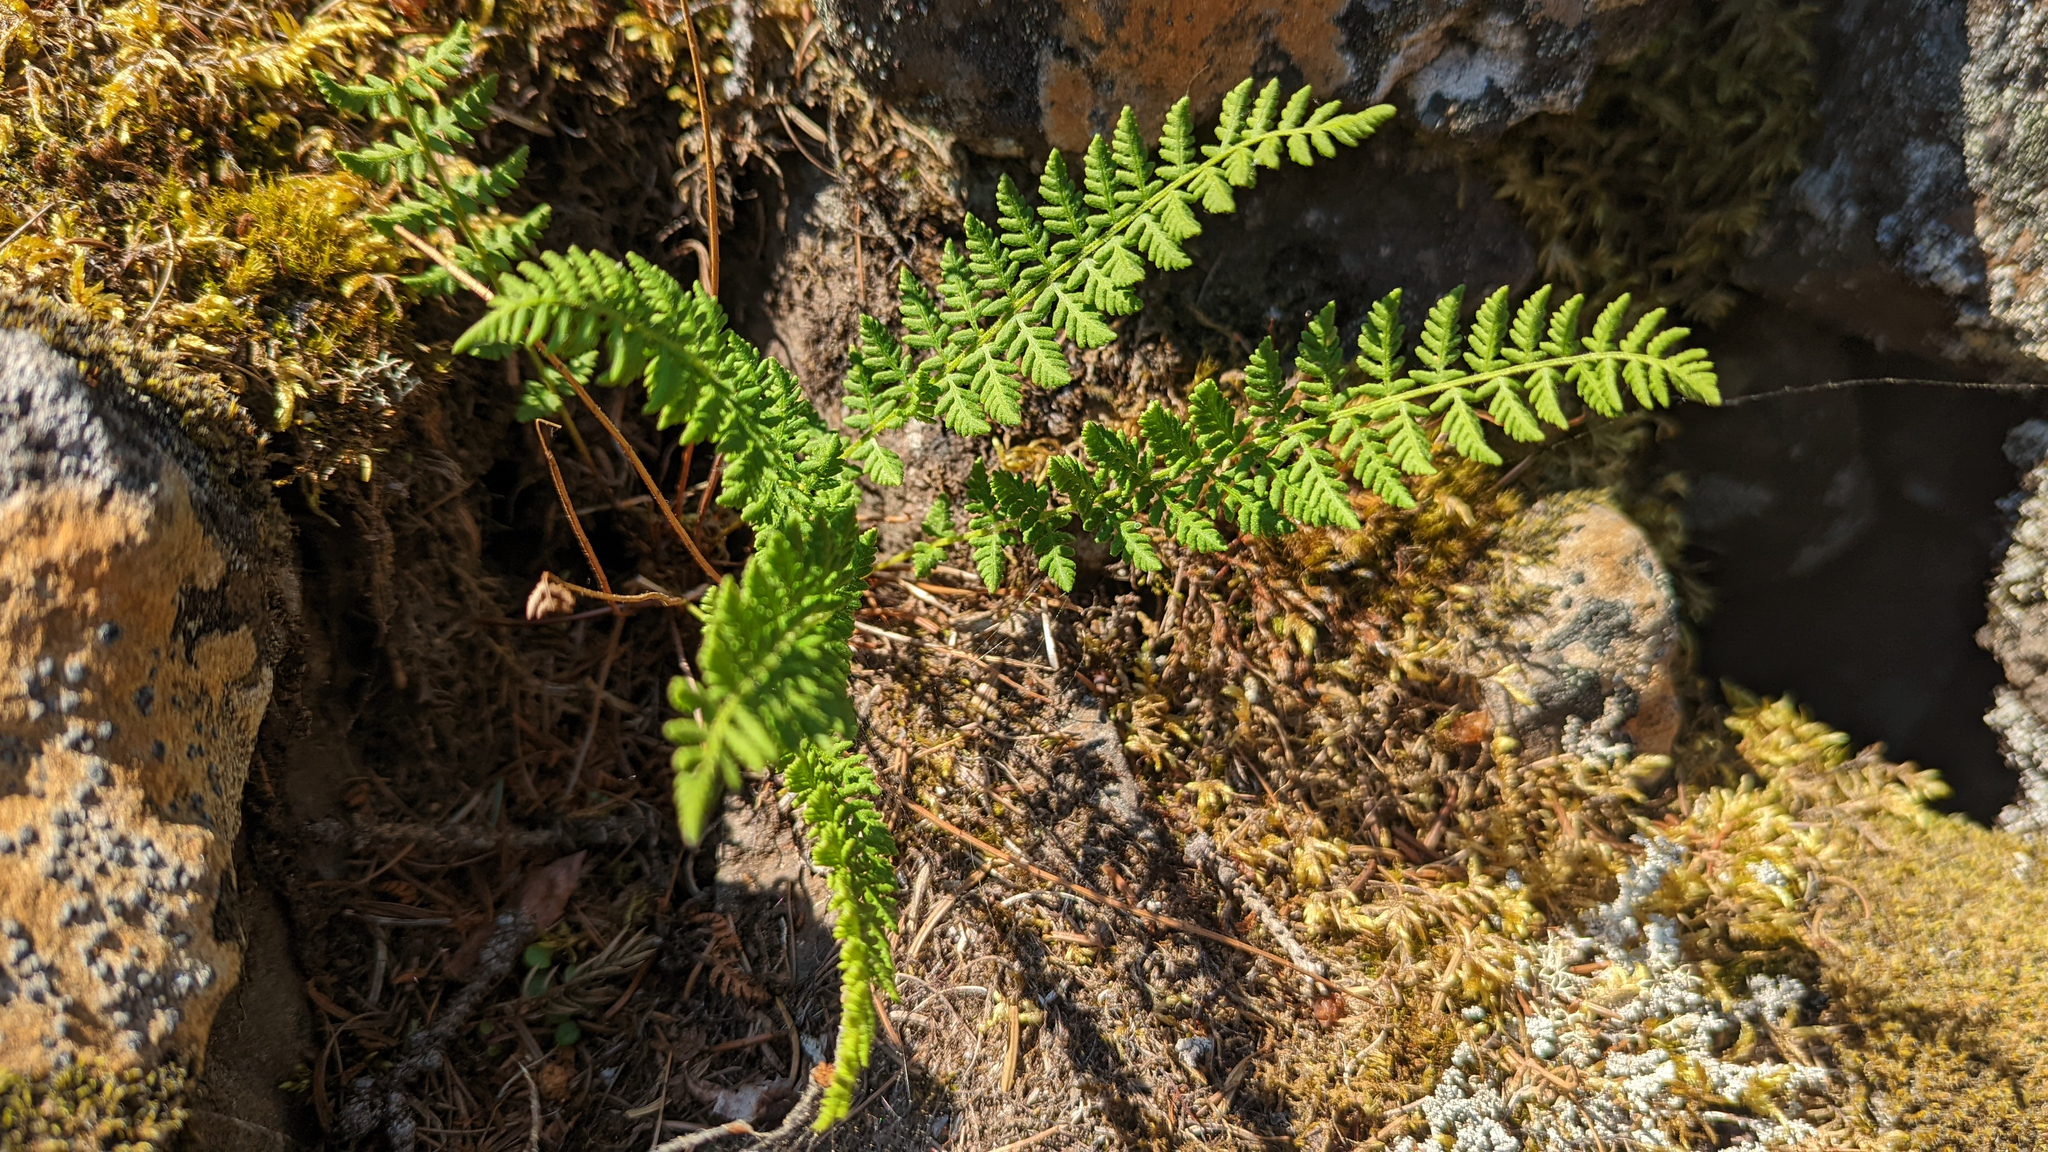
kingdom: Plantae
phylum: Tracheophyta
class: Polypodiopsida
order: Polypodiales
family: Woodsiaceae
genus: Physematium
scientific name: Physematium scopulinum
